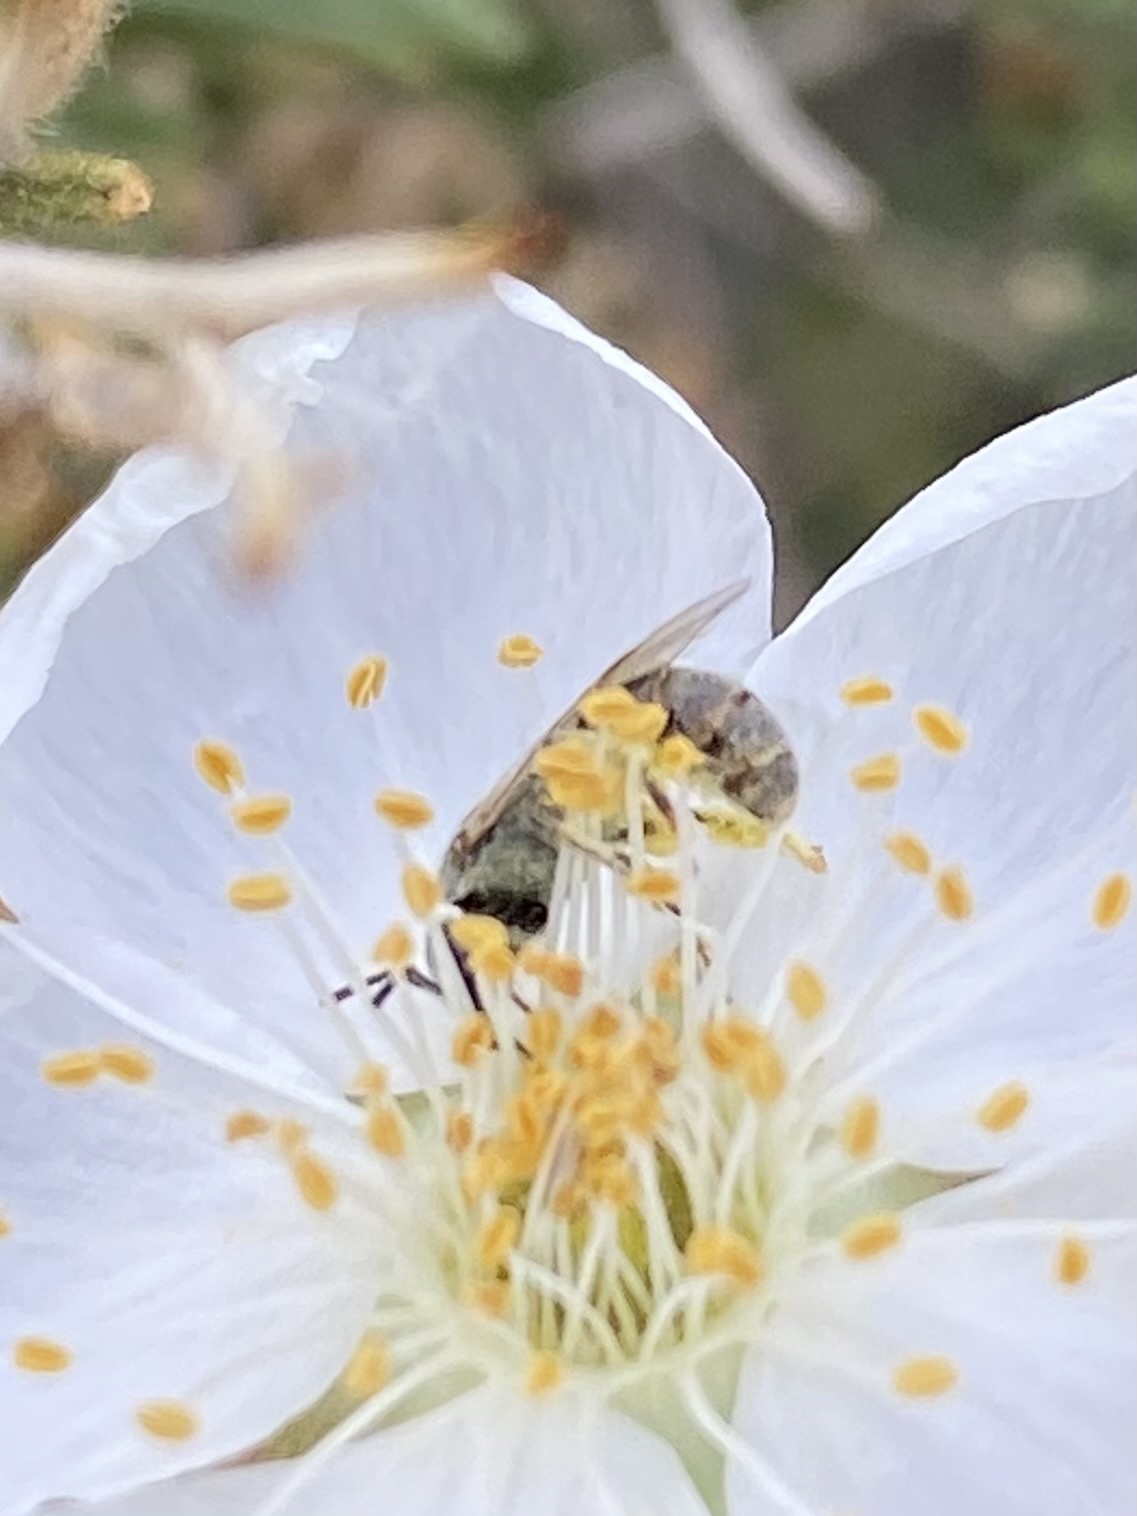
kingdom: Animalia
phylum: Arthropoda
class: Insecta
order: Hymenoptera
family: Halictidae
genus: Dialictus
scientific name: Dialictus
